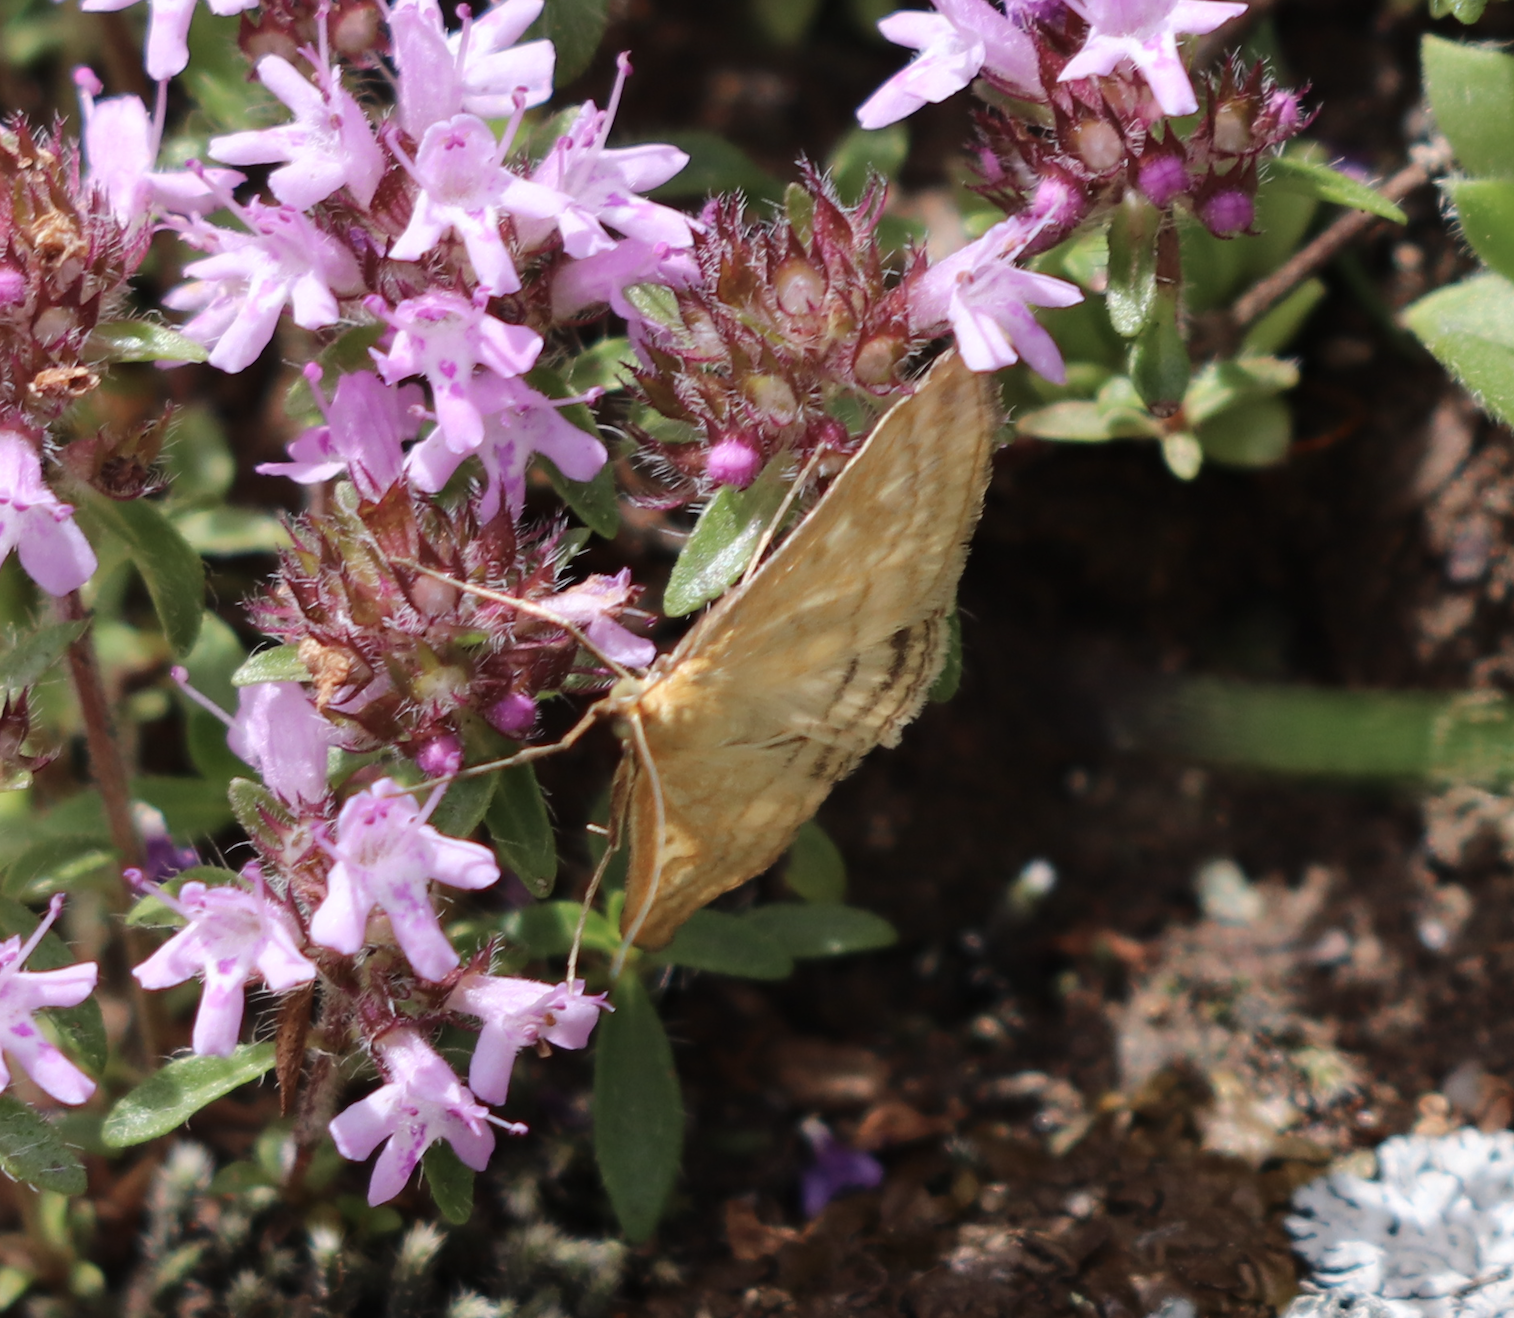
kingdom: Animalia
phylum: Arthropoda
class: Insecta
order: Lepidoptera
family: Crambidae
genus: Sitochroa
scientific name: Sitochroa verticalis
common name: Lesser pearl
